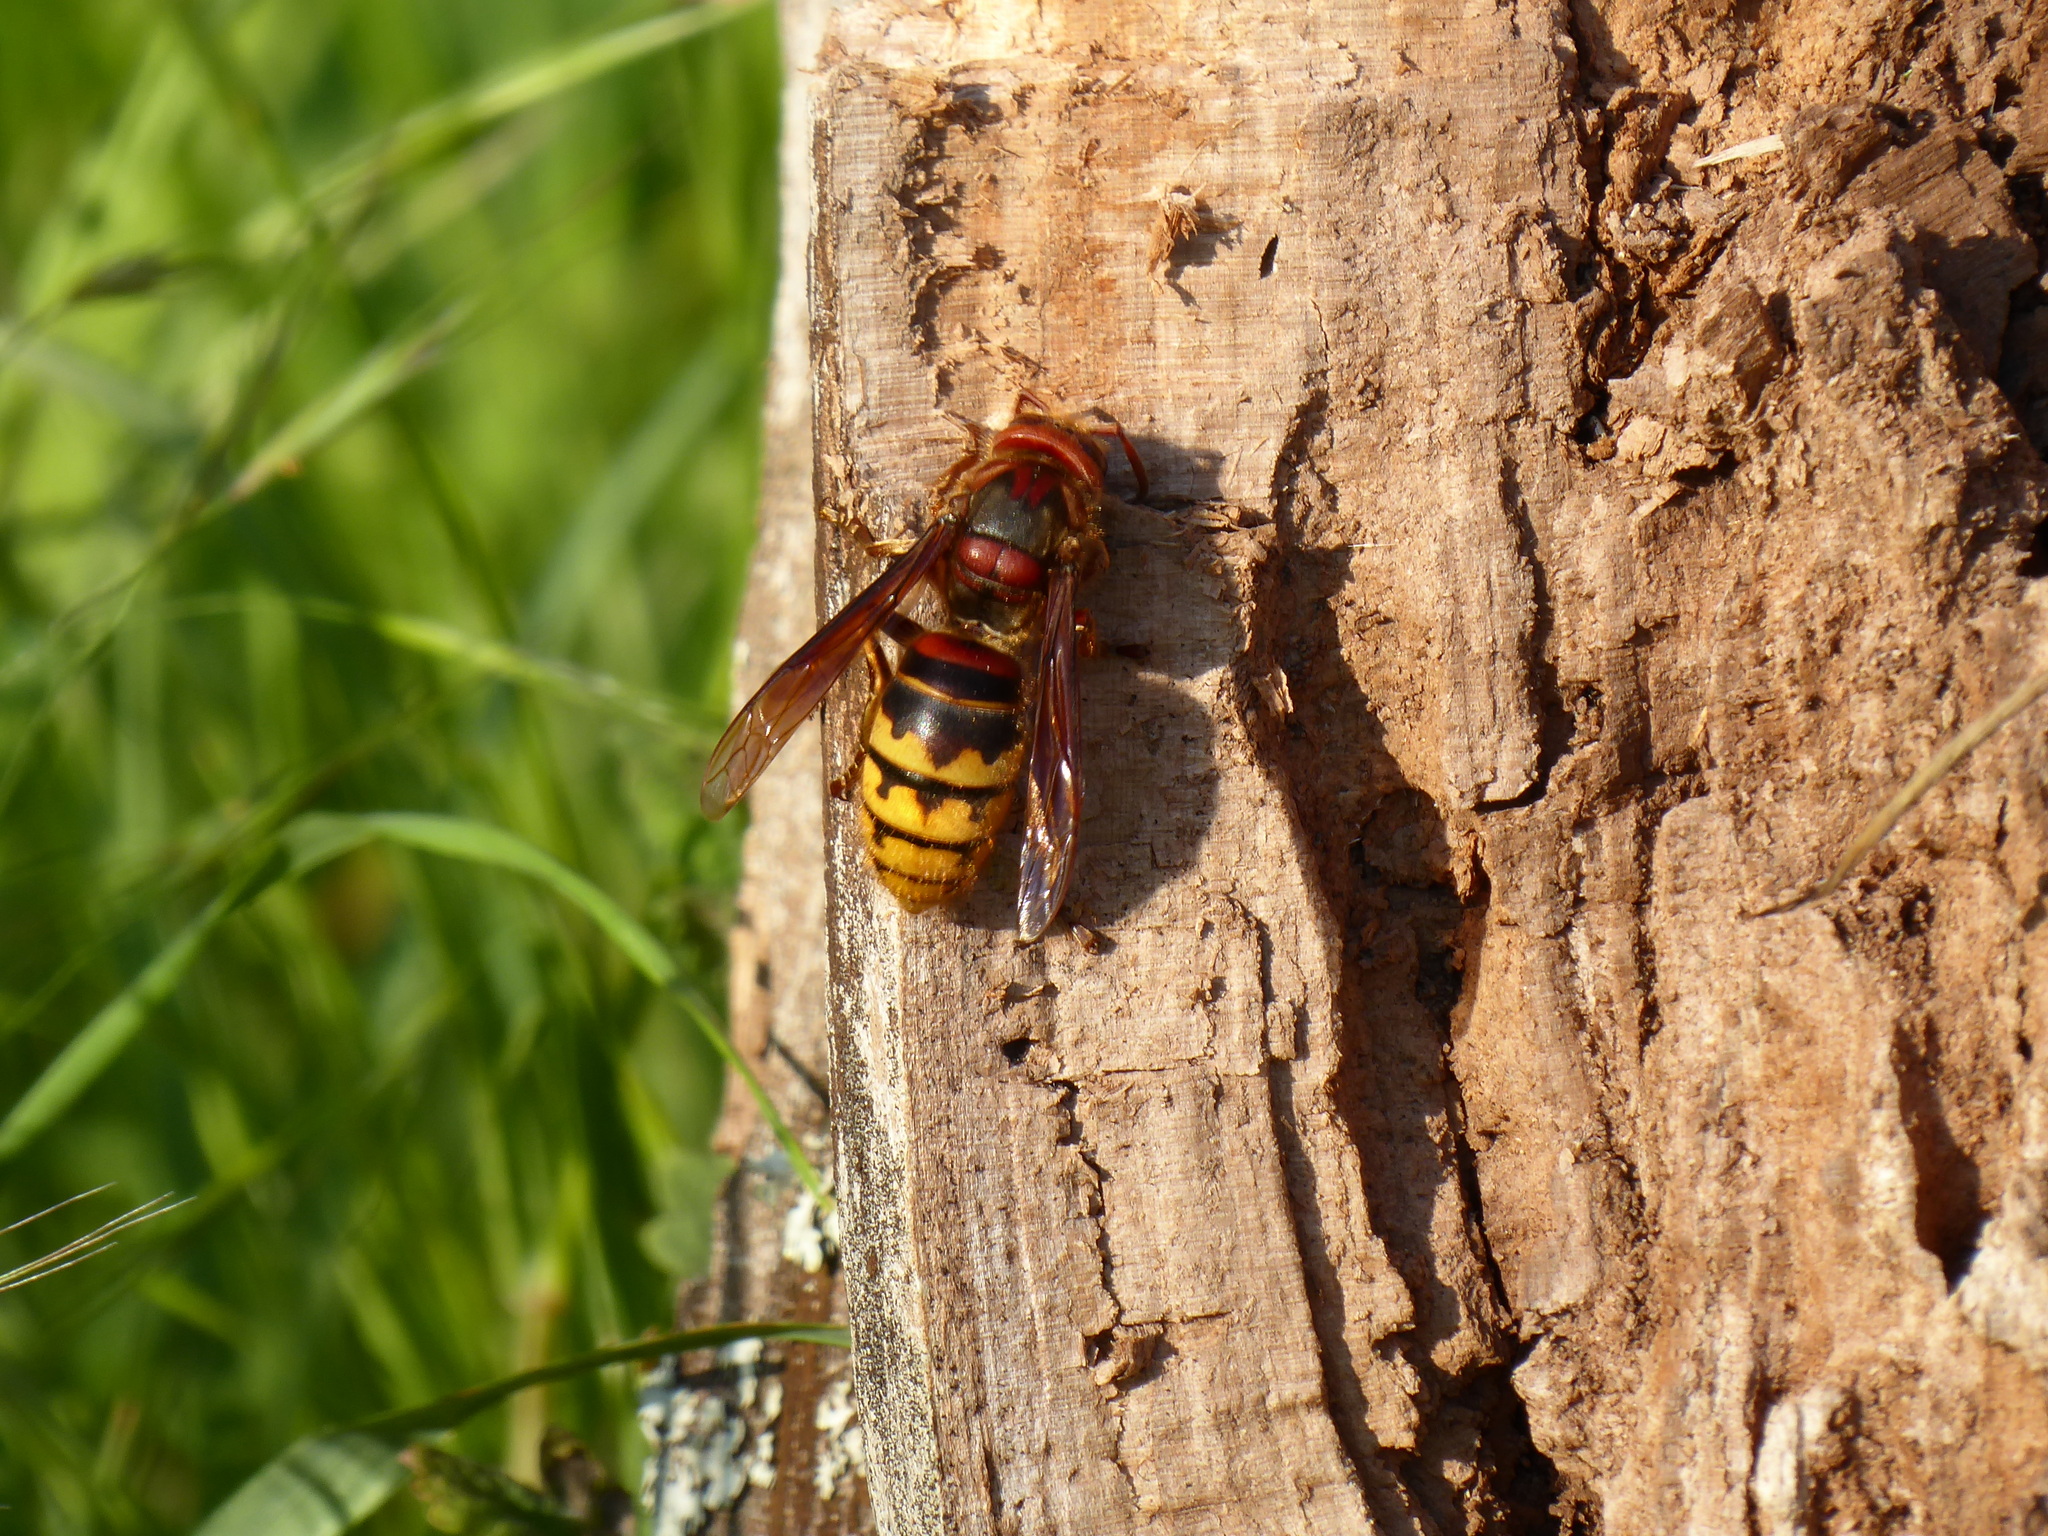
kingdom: Animalia
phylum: Arthropoda
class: Insecta
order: Hymenoptera
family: Vespidae
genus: Vespa
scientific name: Vespa crabro
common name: Hornet
